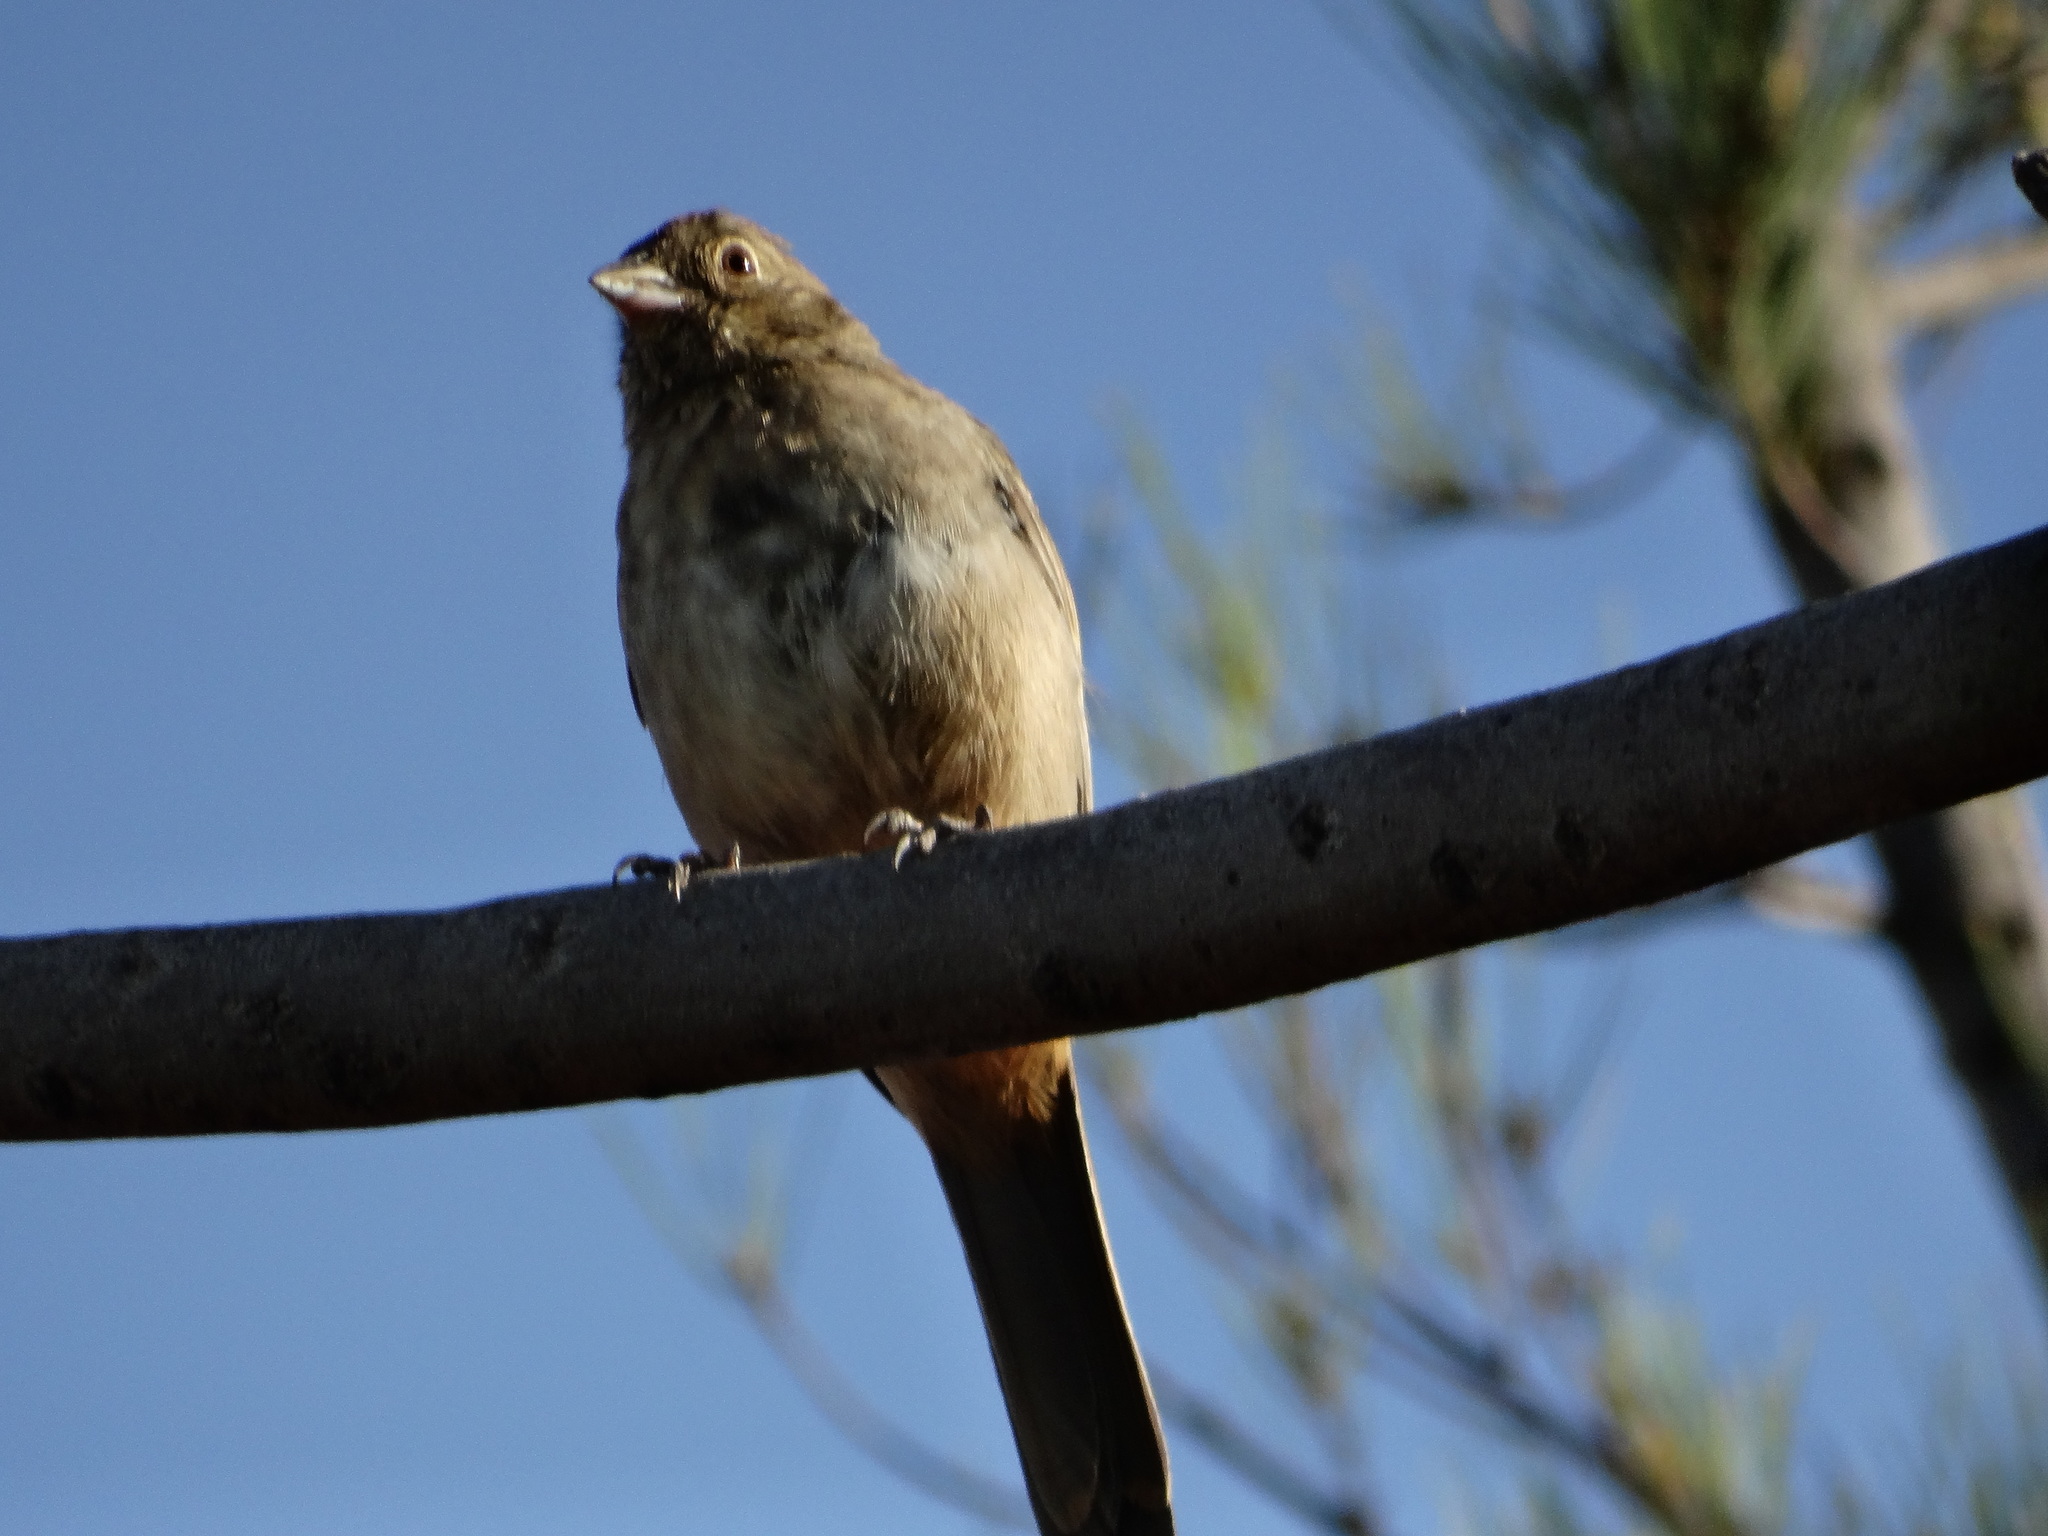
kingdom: Animalia
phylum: Chordata
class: Aves
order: Passeriformes
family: Passerellidae
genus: Melozone
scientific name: Melozone fusca
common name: Canyon towhee
